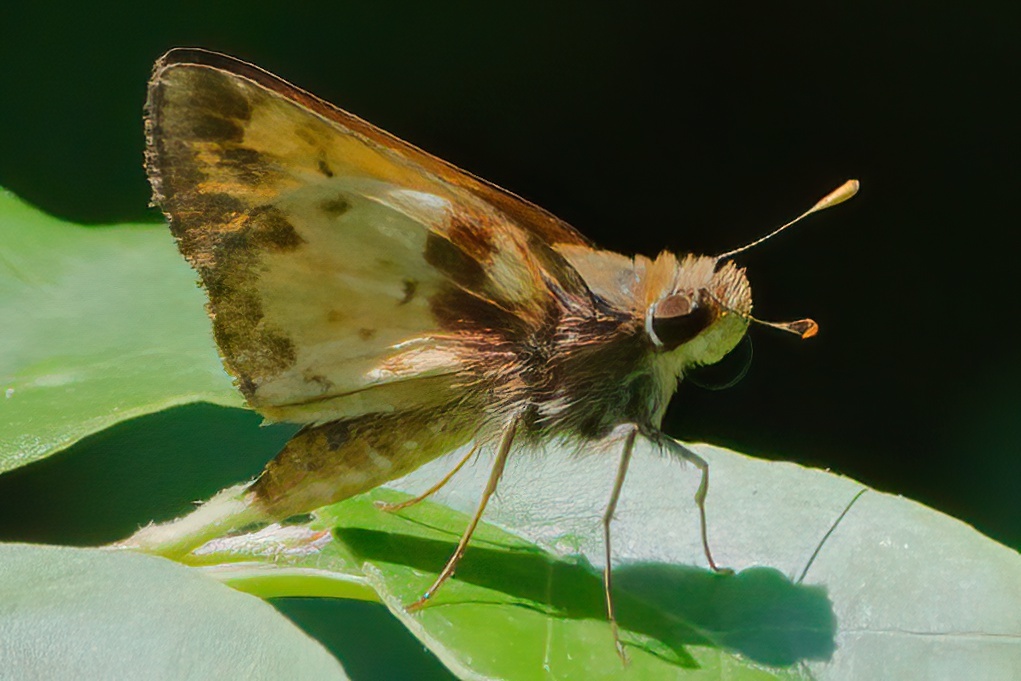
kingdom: Animalia
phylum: Arthropoda
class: Insecta
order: Lepidoptera
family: Hesperiidae
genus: Lon
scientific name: Lon zabulon
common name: Zabulon skipper
